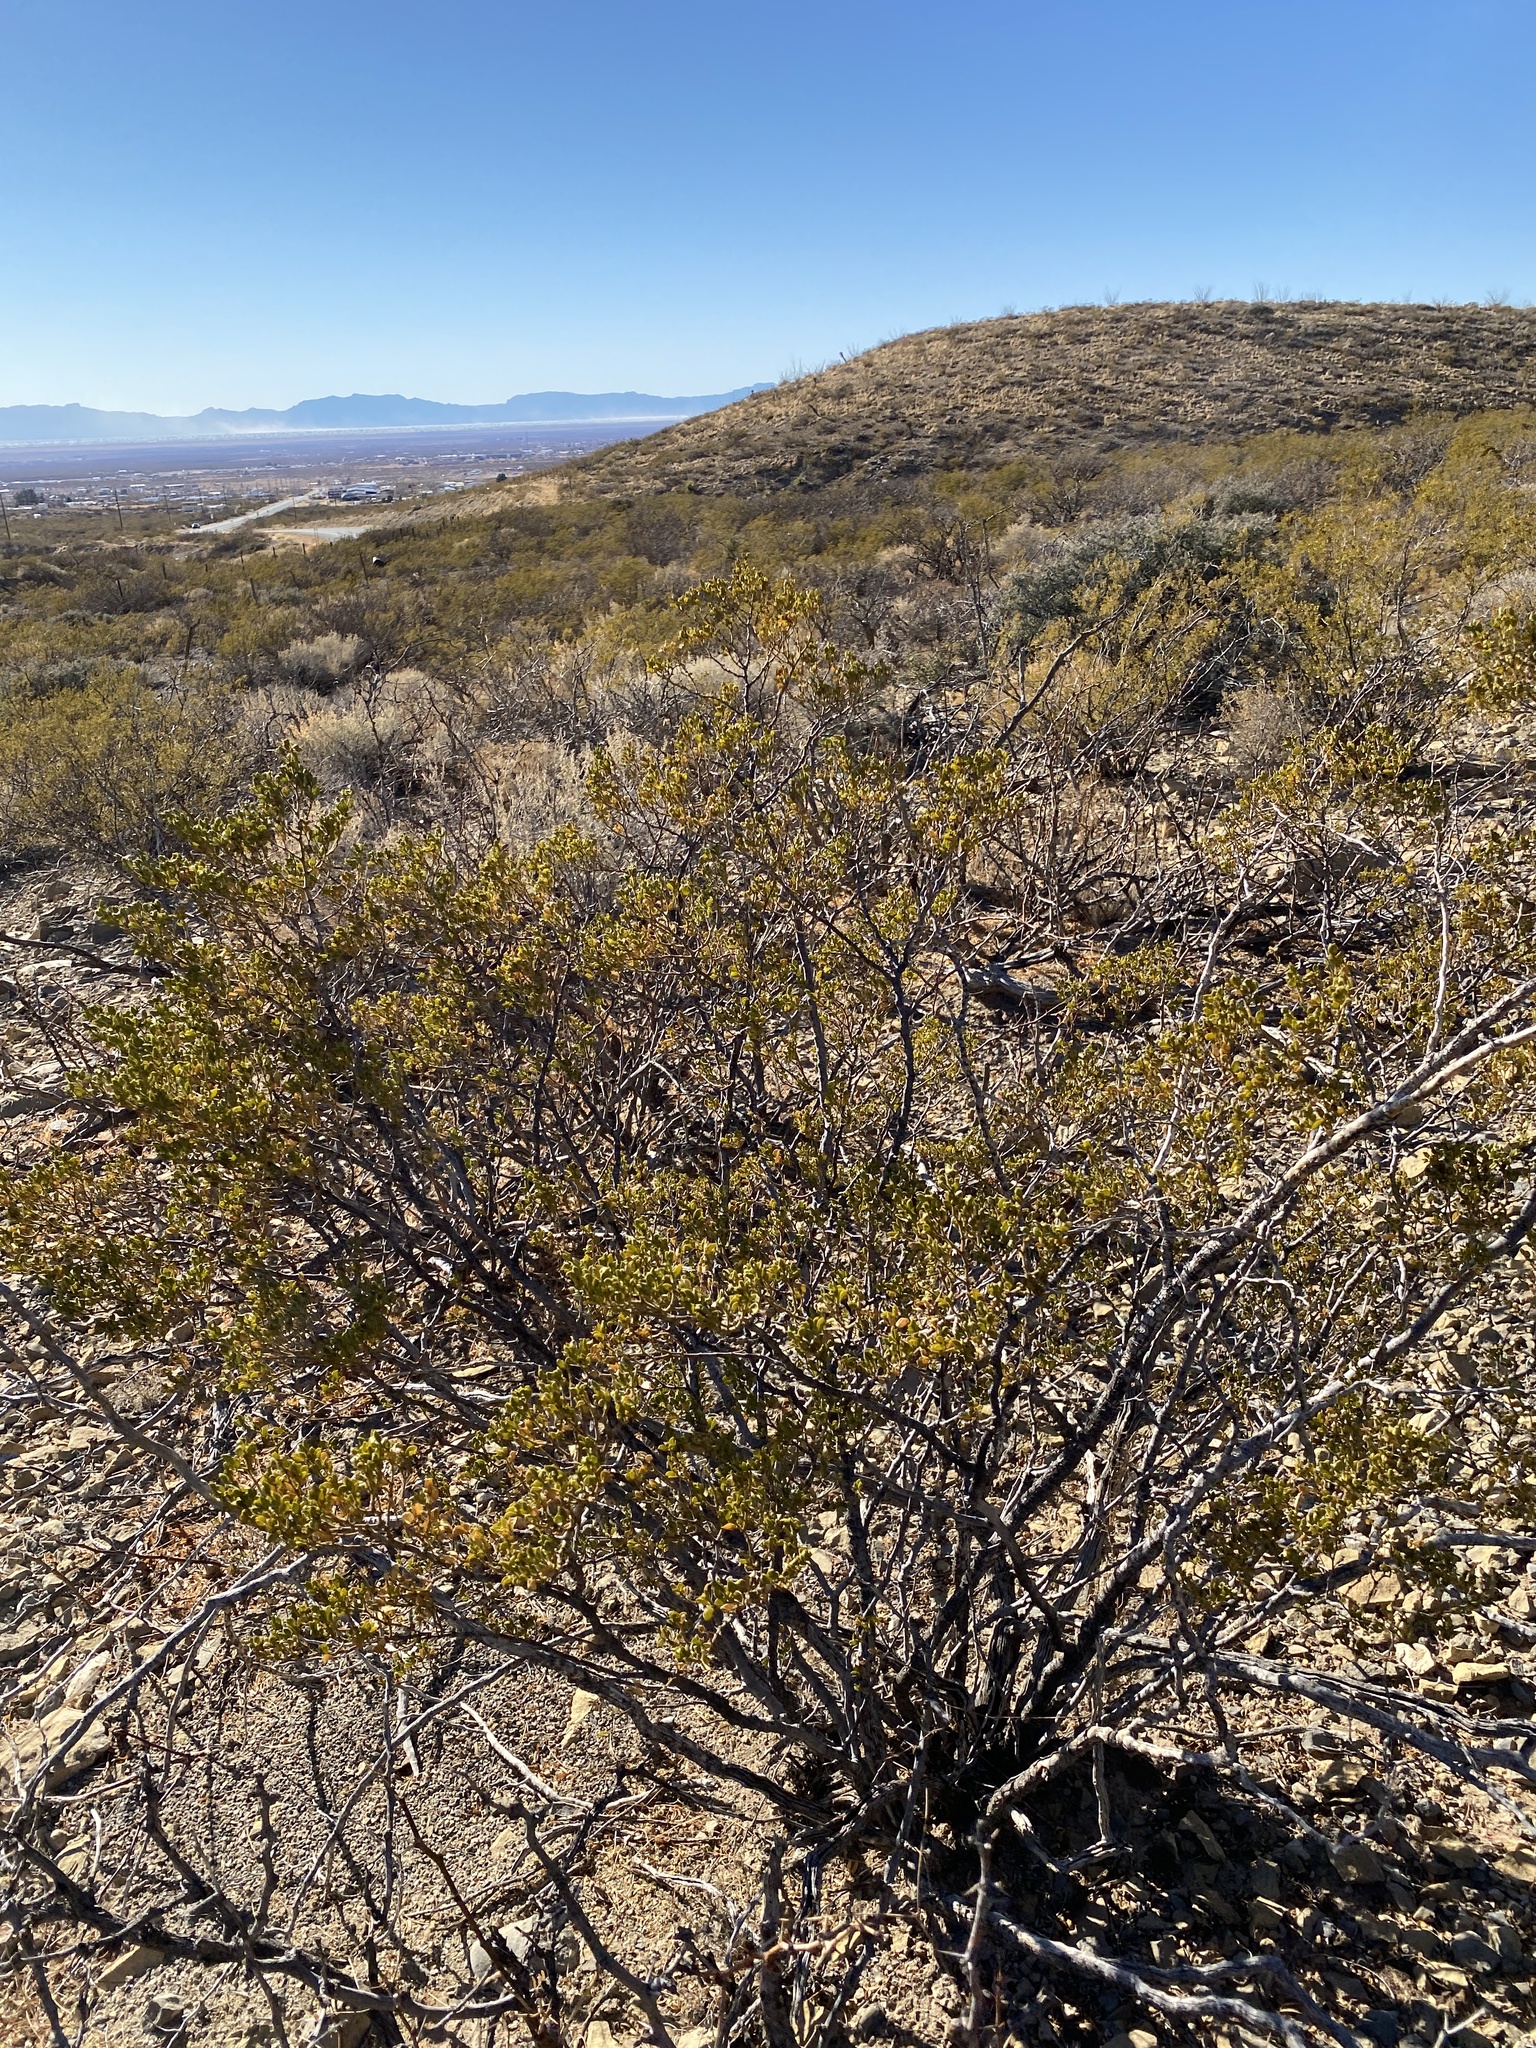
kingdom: Plantae
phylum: Tracheophyta
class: Magnoliopsida
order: Zygophyllales
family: Zygophyllaceae
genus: Larrea
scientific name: Larrea tridentata
